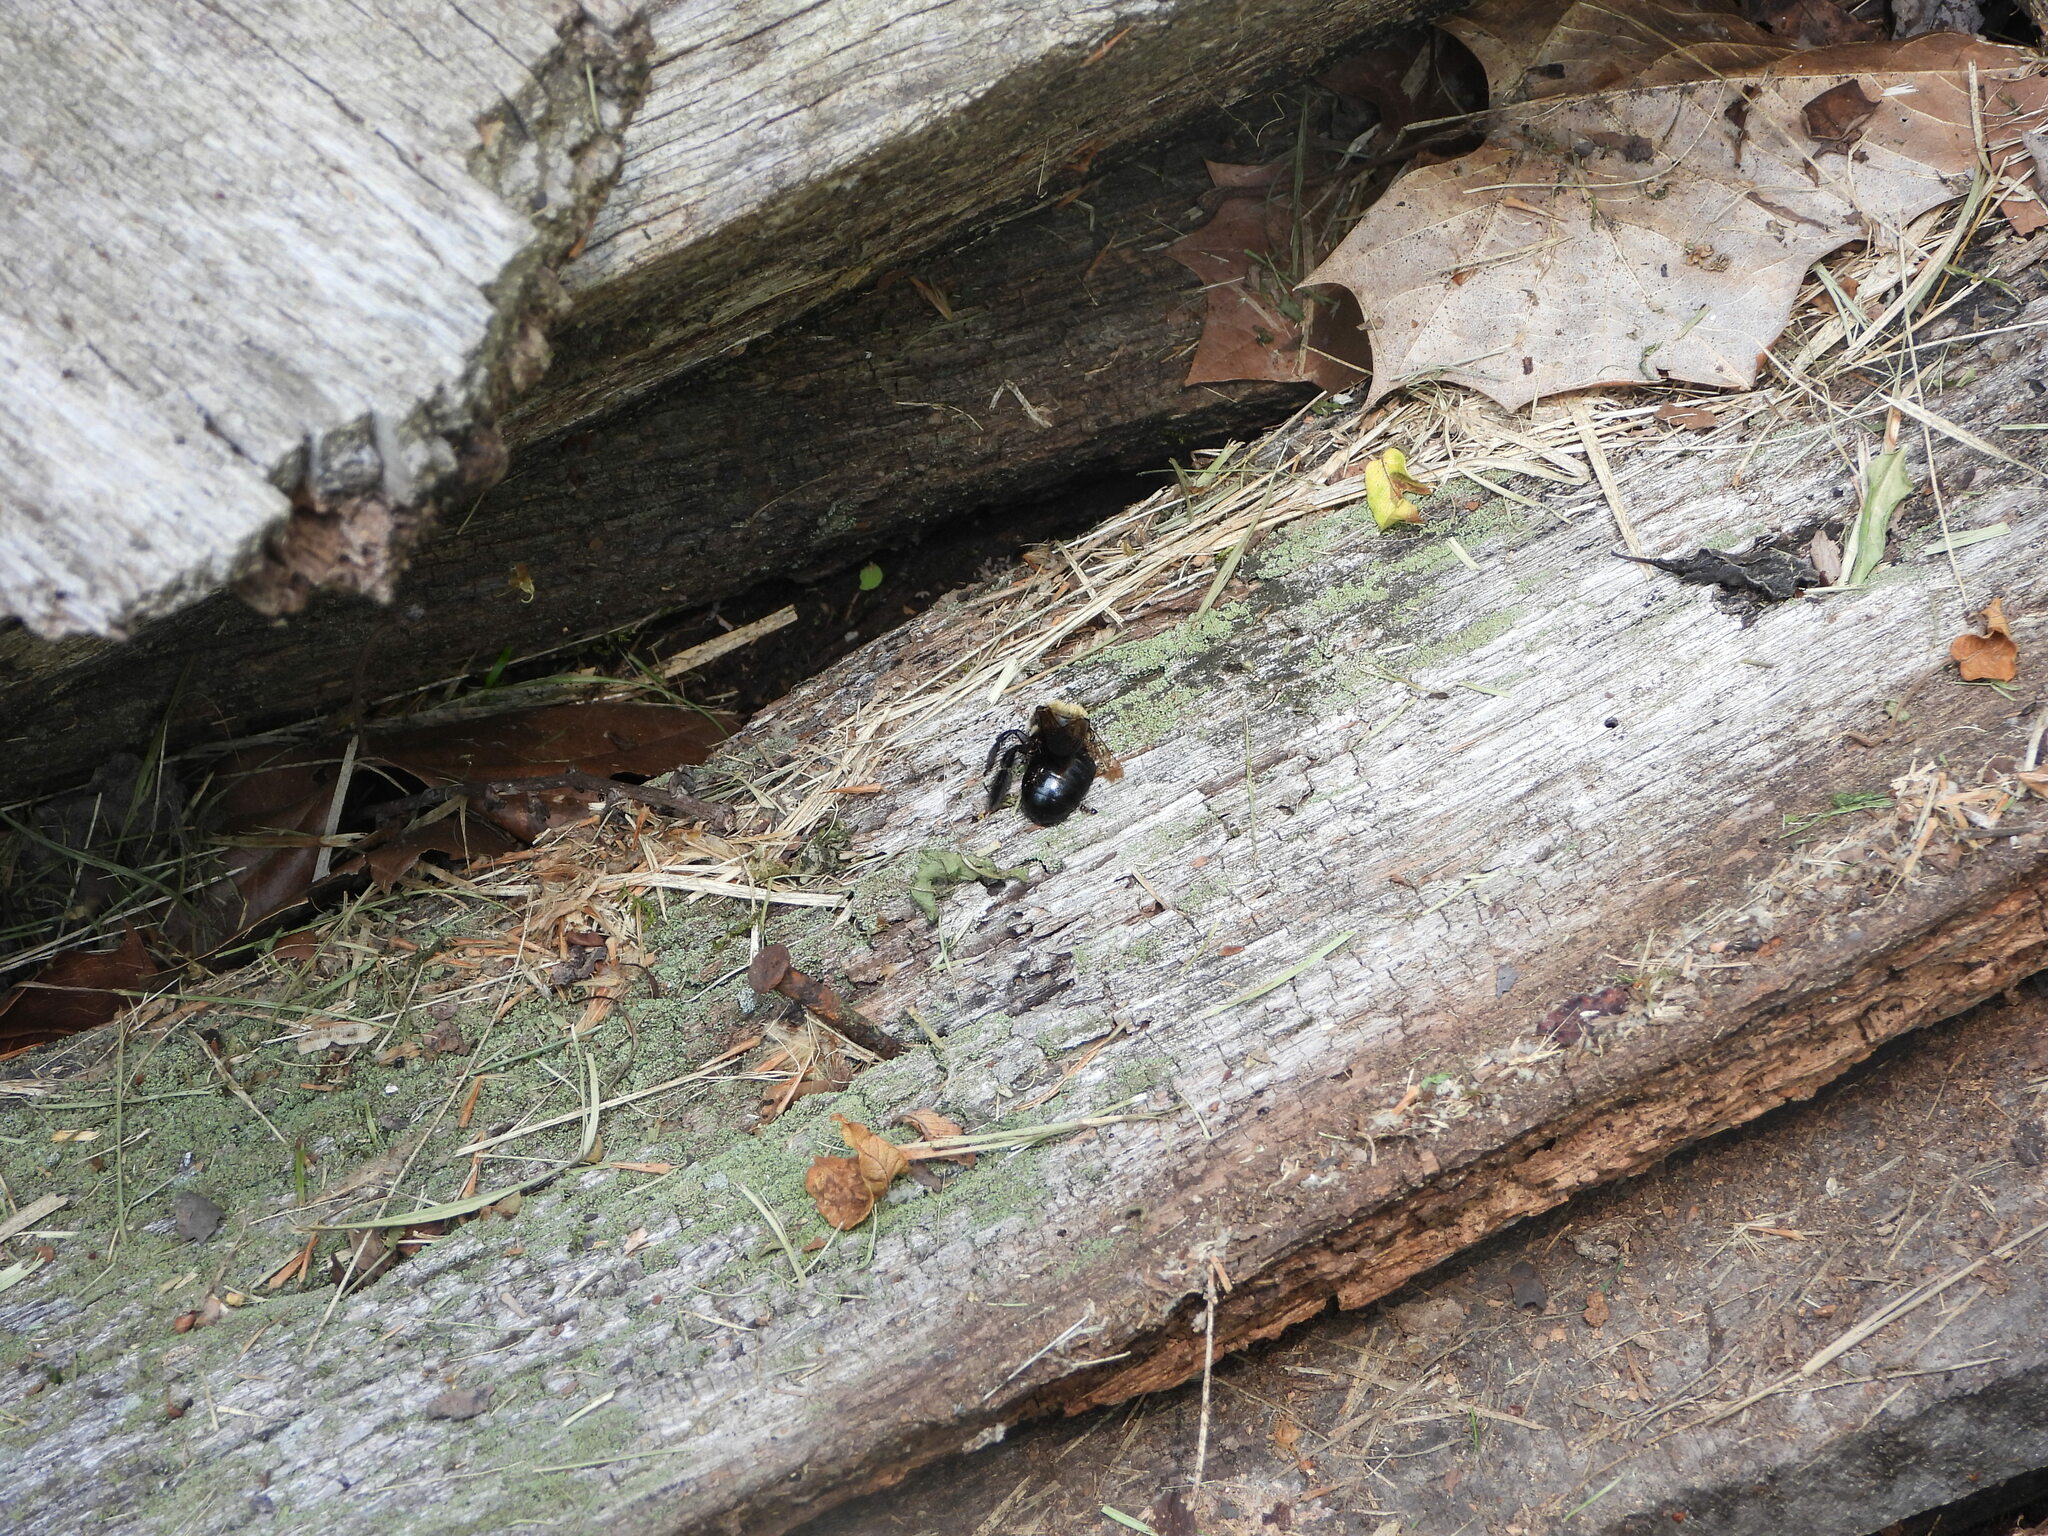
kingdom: Animalia
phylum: Arthropoda
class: Insecta
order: Hymenoptera
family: Apidae
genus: Xylocopa
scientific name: Xylocopa virginica
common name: Carpenter bee
